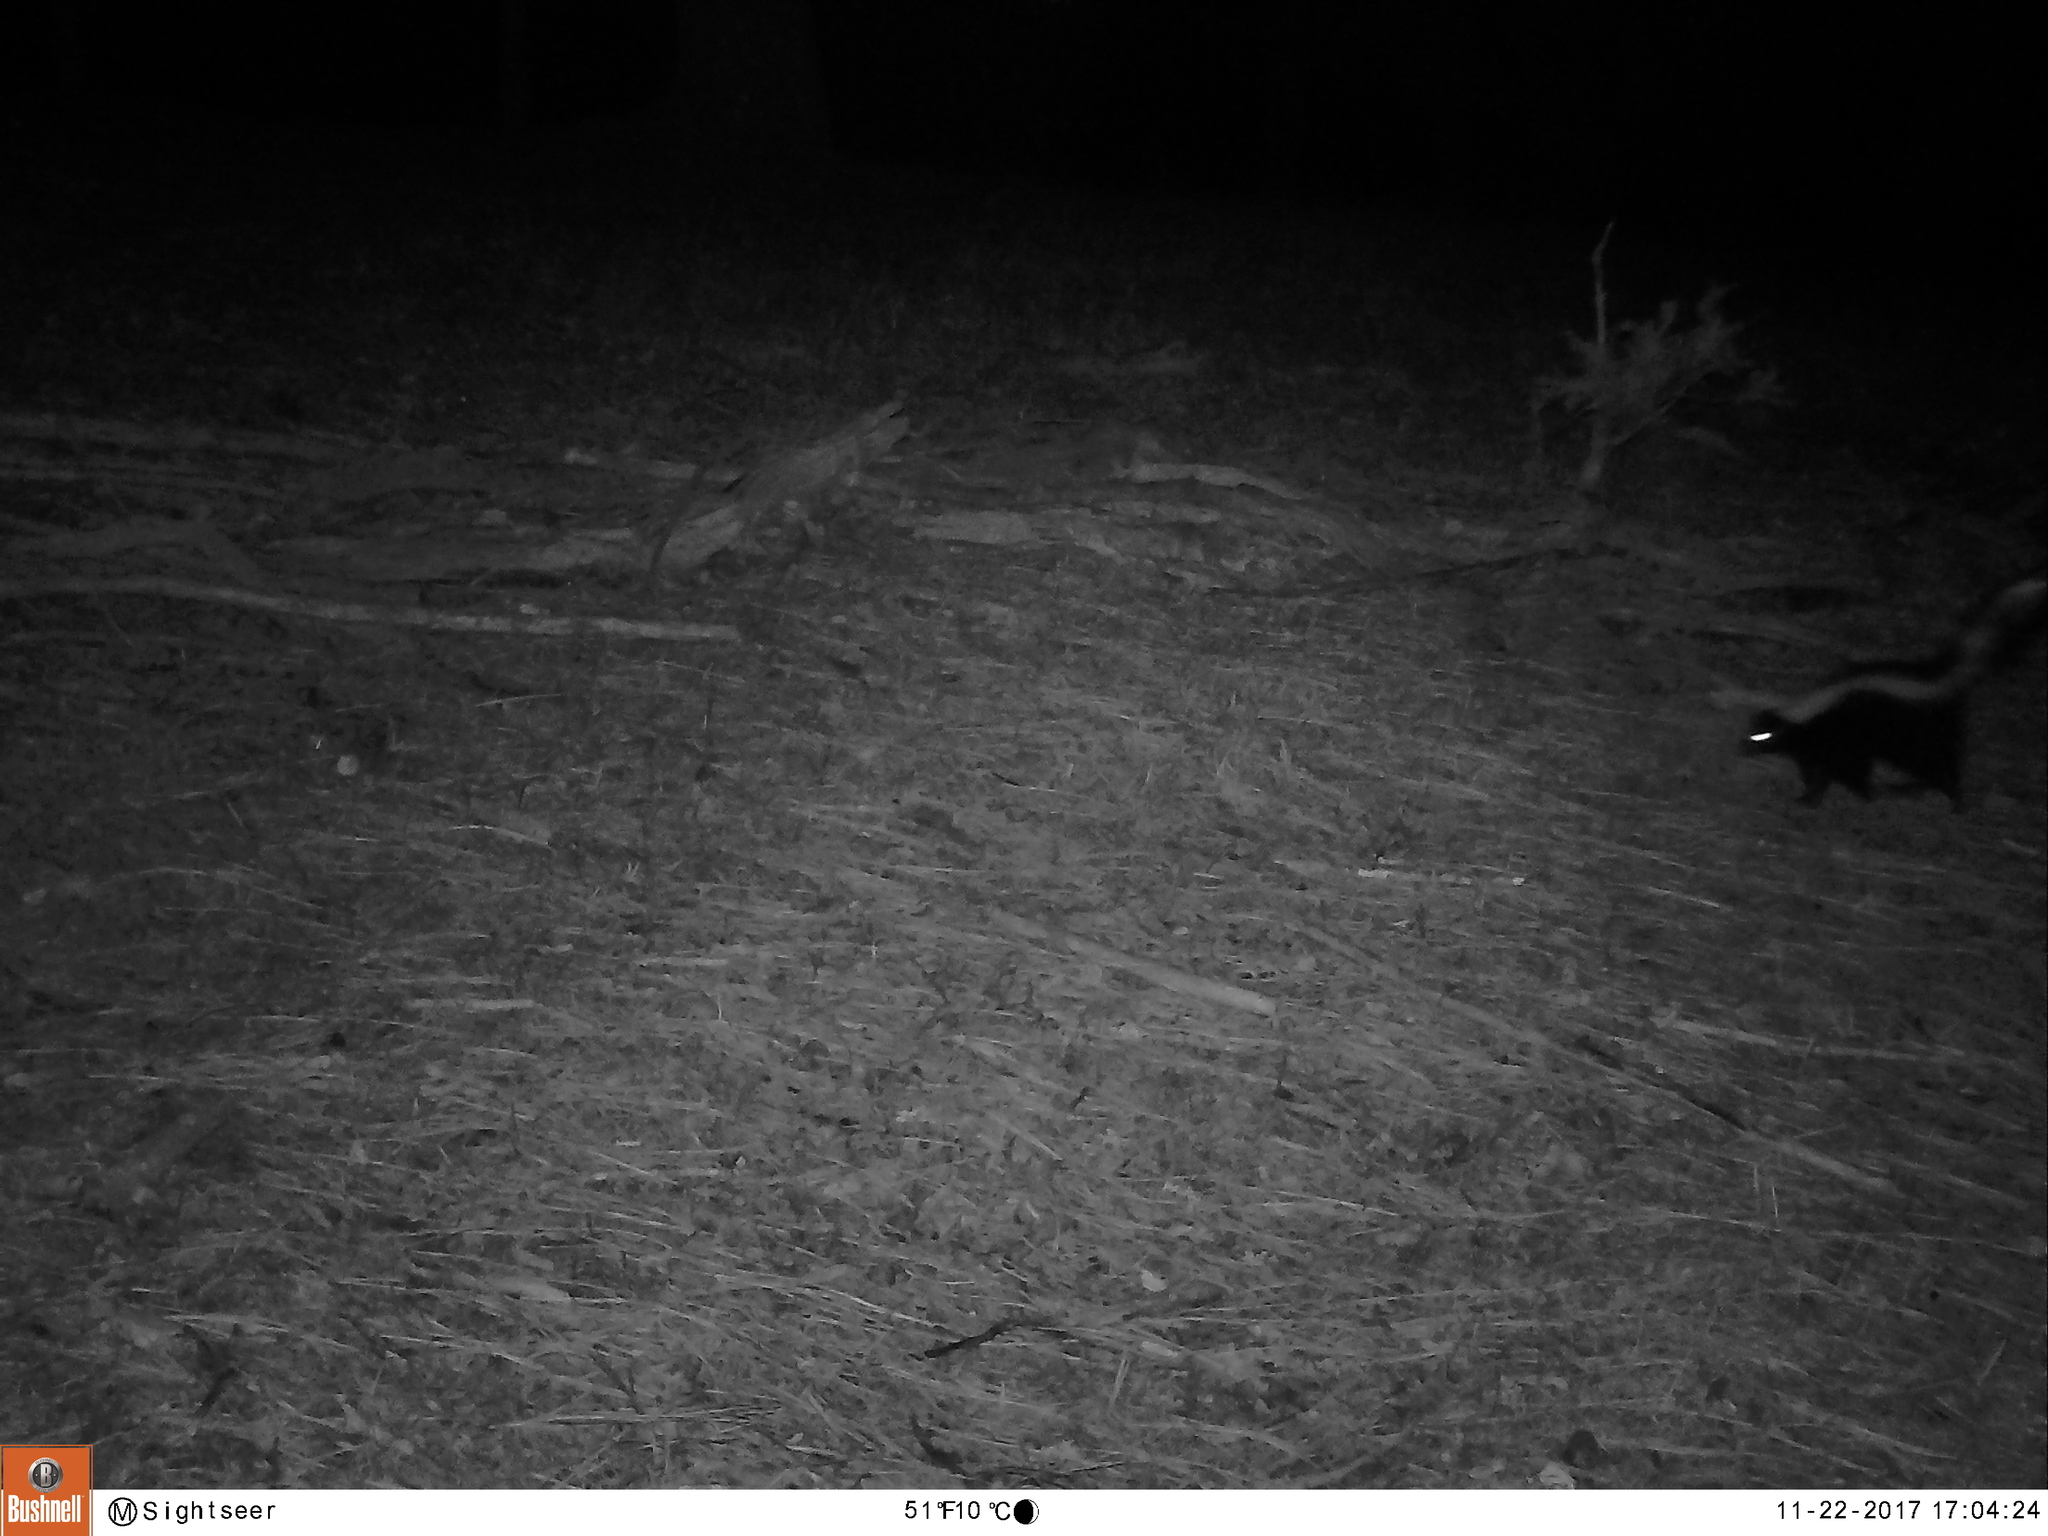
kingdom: Animalia
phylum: Chordata
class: Mammalia
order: Carnivora
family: Mephitidae
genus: Mephitis
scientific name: Mephitis mephitis
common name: Striped skunk
